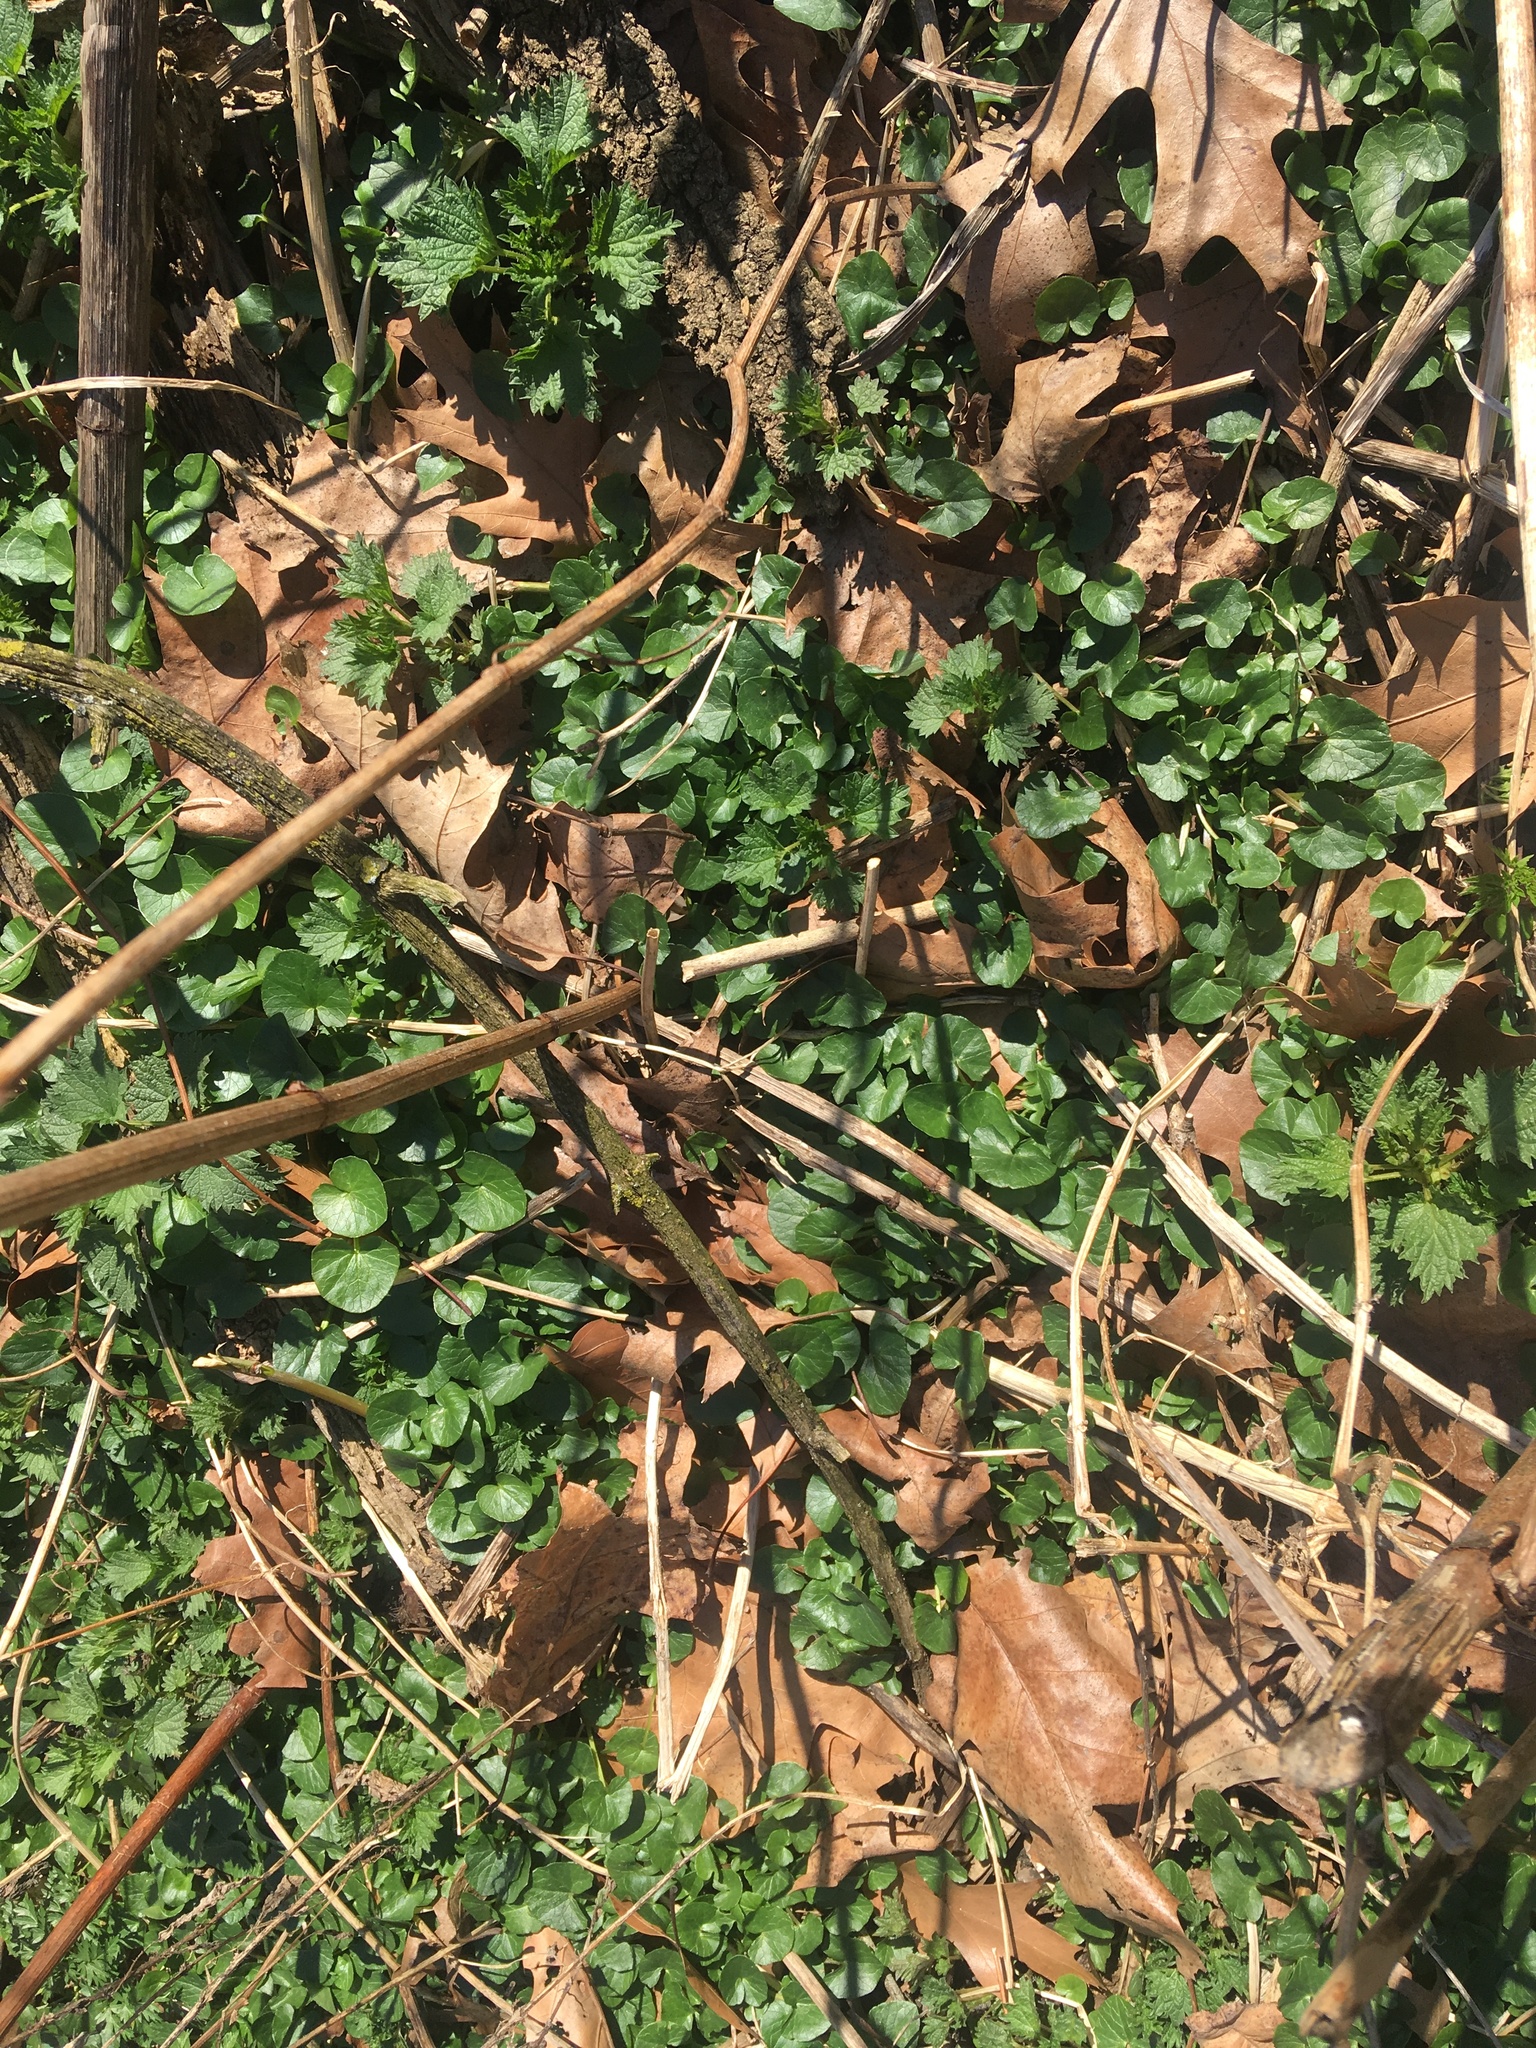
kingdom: Plantae
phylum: Tracheophyta
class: Magnoliopsida
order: Ranunculales
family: Ranunculaceae
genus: Ficaria
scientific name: Ficaria verna
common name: Lesser celandine
